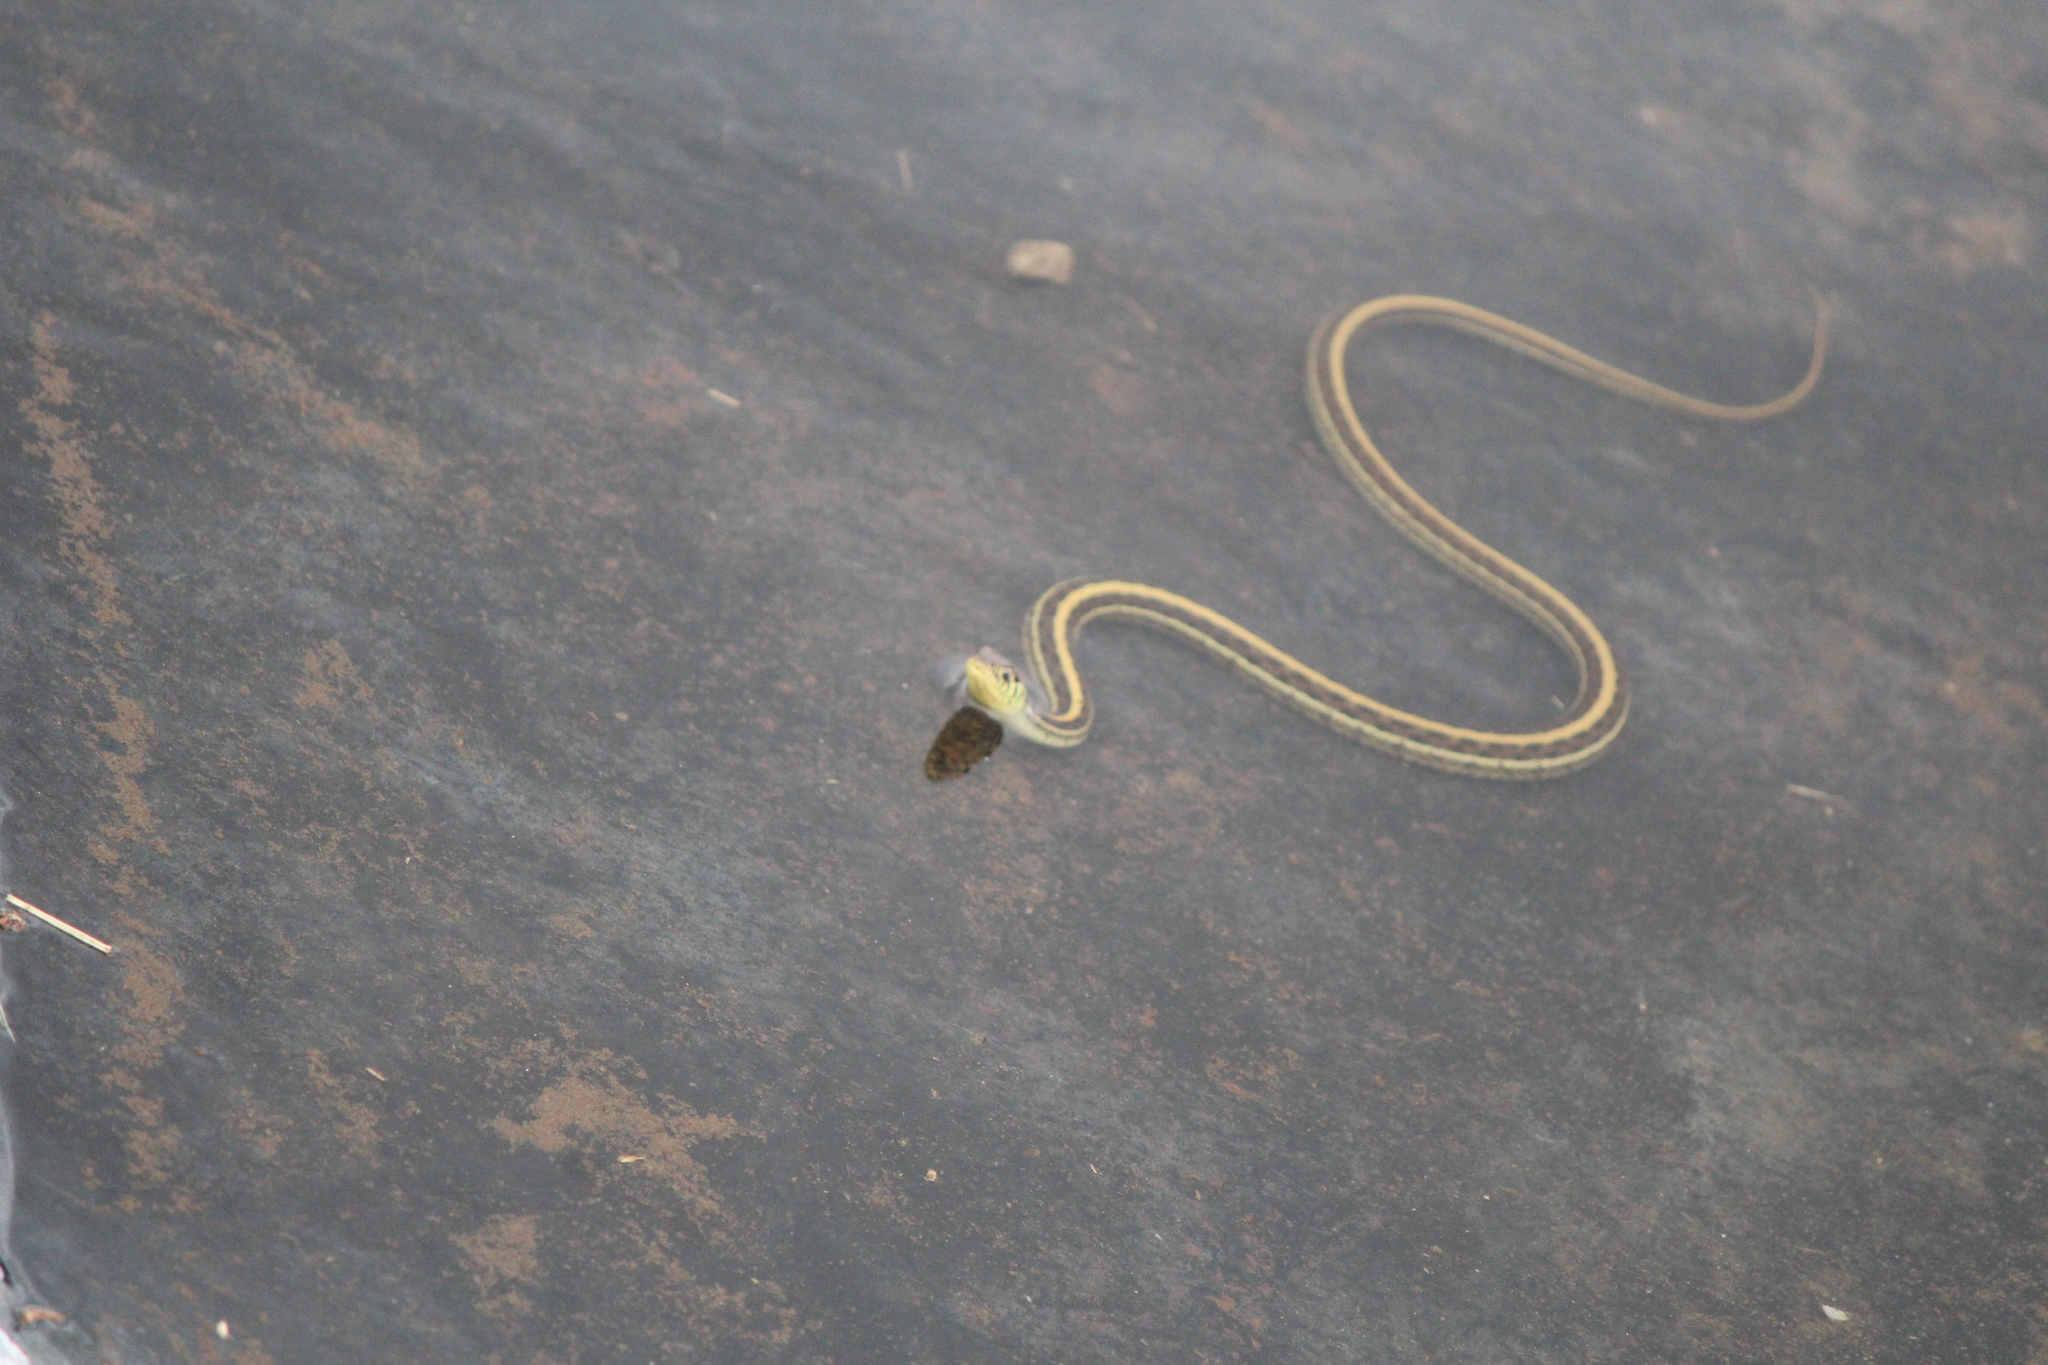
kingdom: Animalia
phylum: Chordata
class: Squamata
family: Colubridae
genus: Thamnophis
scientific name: Thamnophis eques
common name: Mexican garter snake
